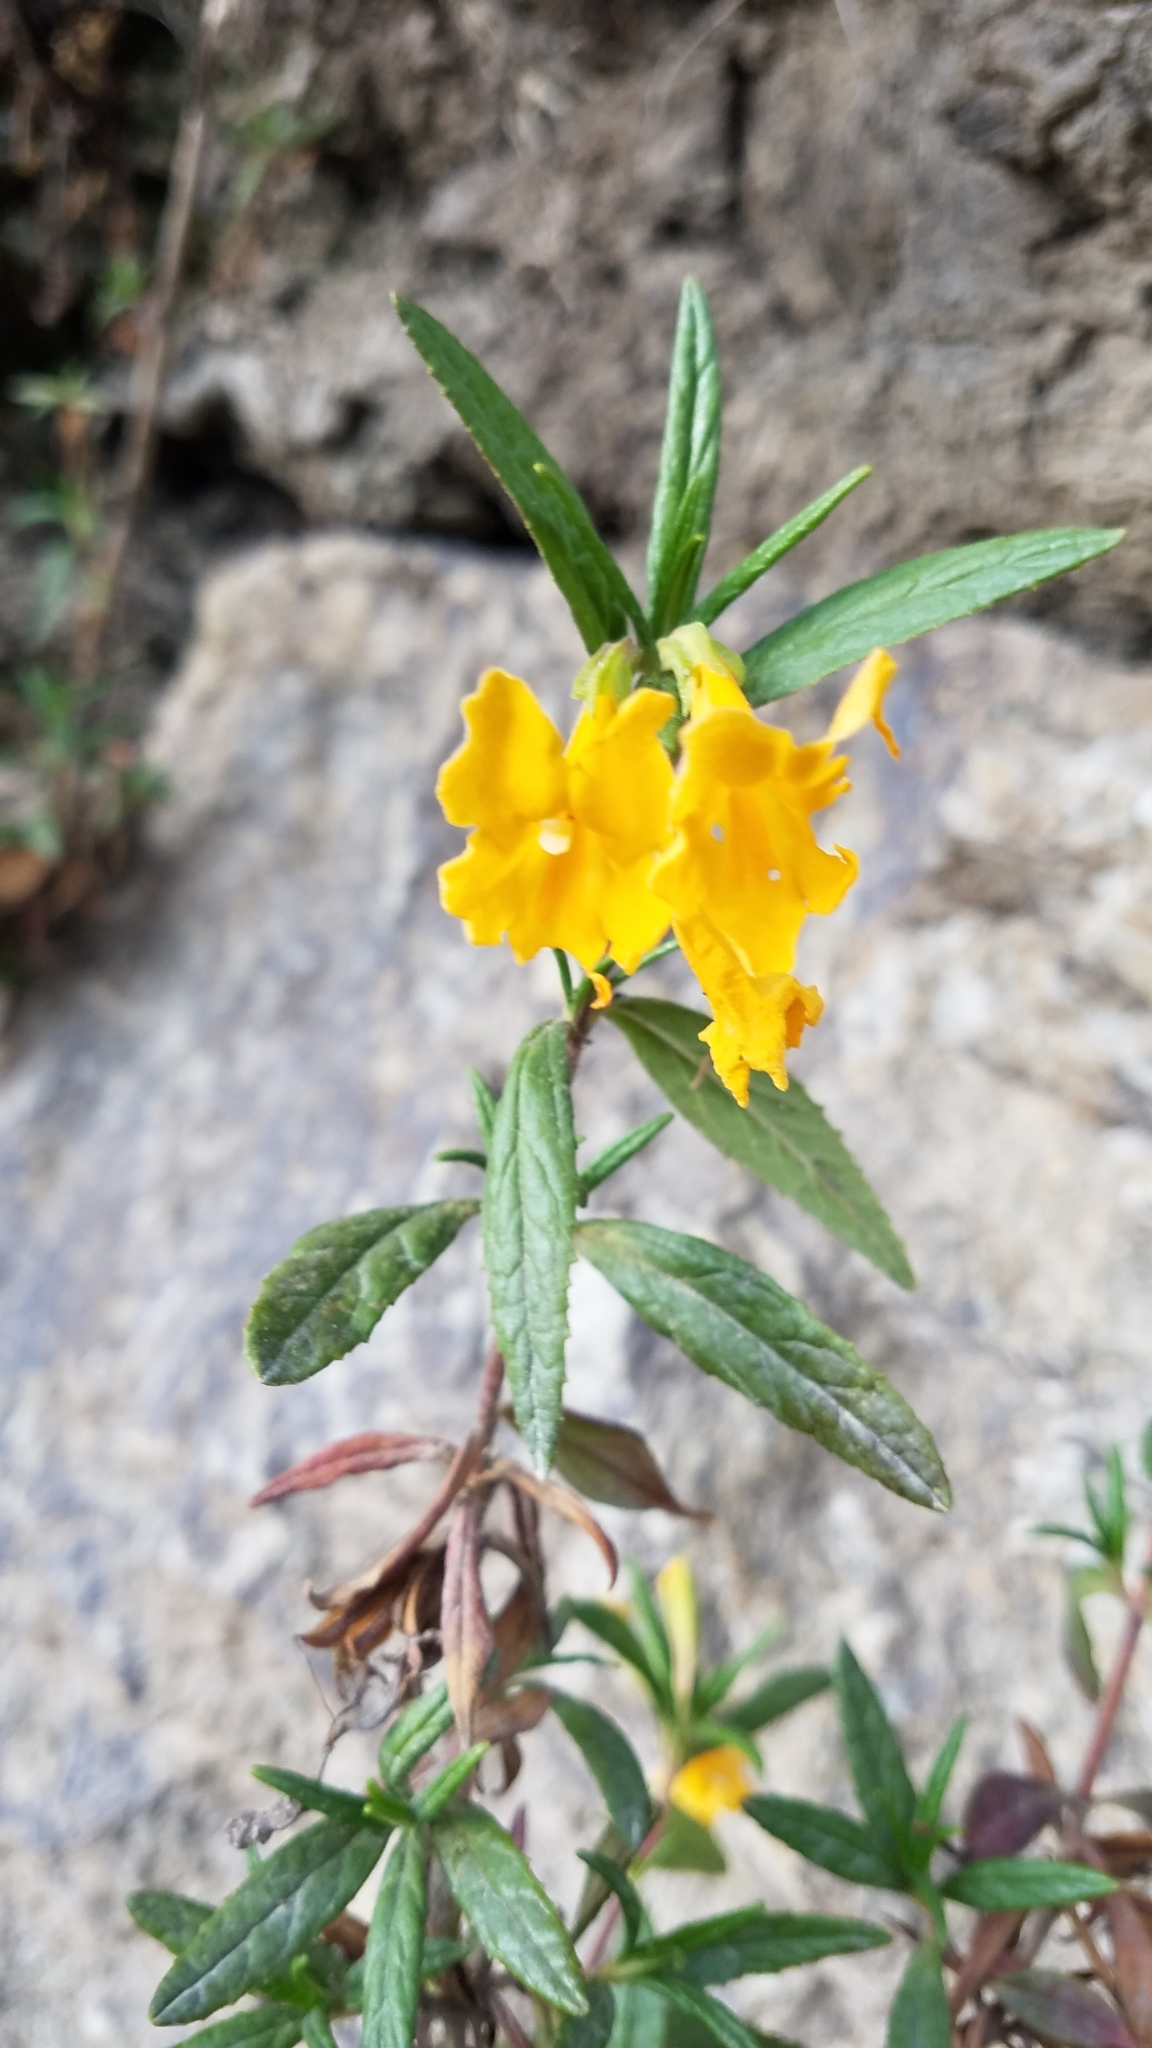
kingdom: Plantae
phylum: Tracheophyta
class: Magnoliopsida
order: Lamiales
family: Phrymaceae
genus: Diplacus
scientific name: Diplacus aurantiacus
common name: Bush monkey-flower
